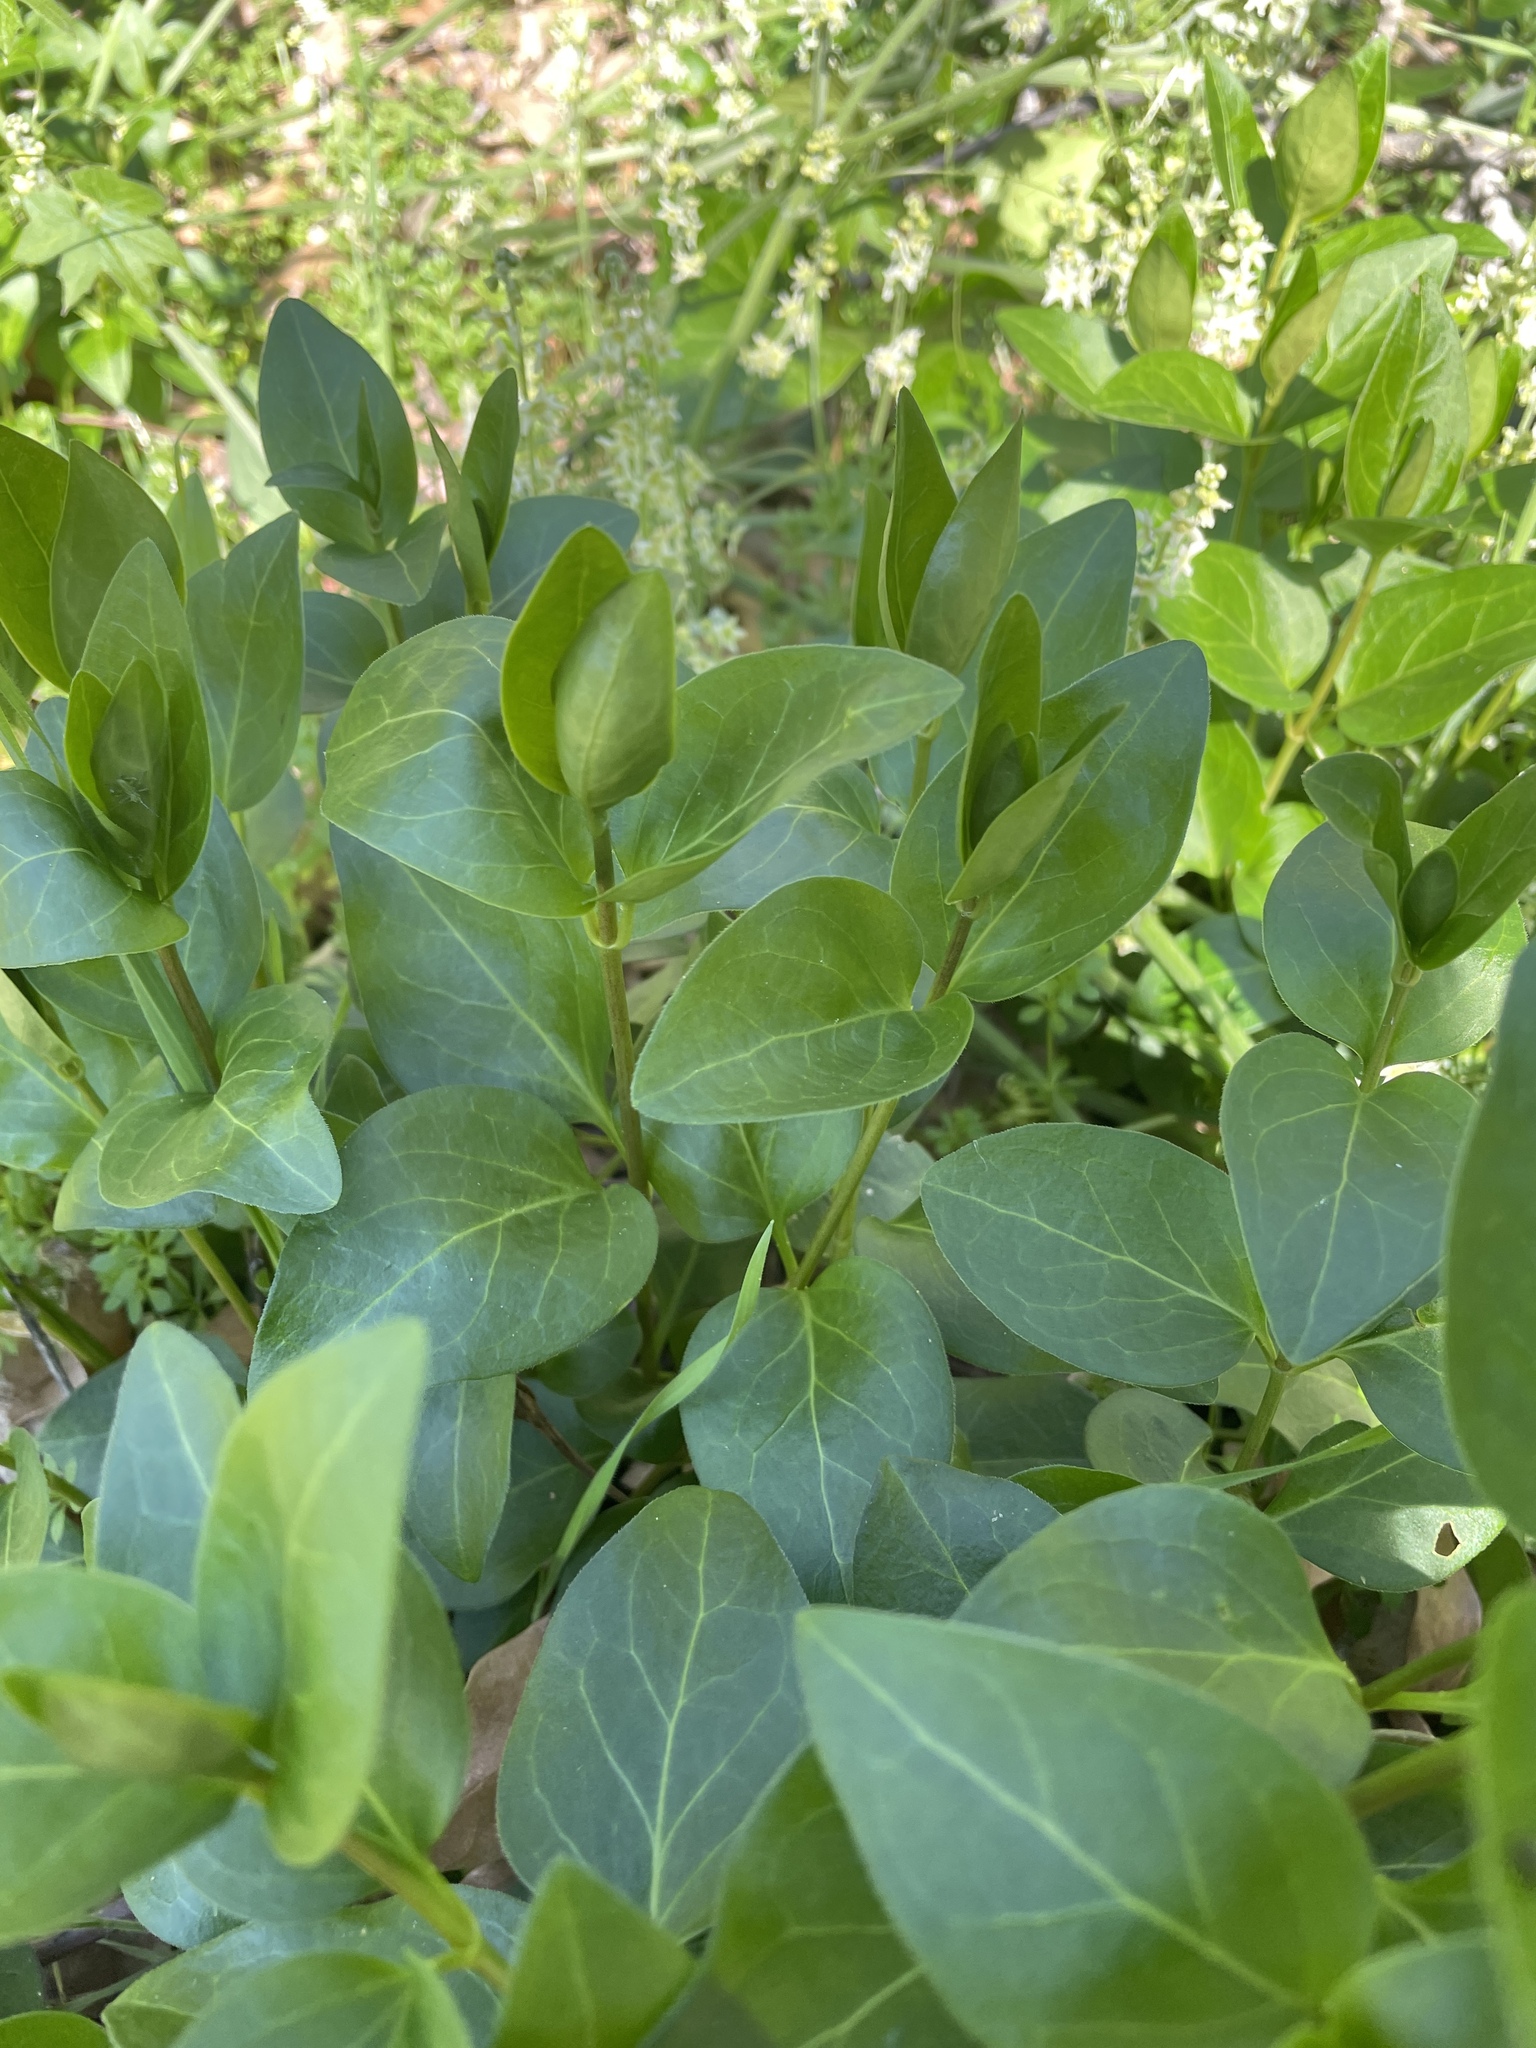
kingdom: Plantae
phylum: Tracheophyta
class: Magnoliopsida
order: Gentianales
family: Apocynaceae
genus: Vinca
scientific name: Vinca major
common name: Greater periwinkle
